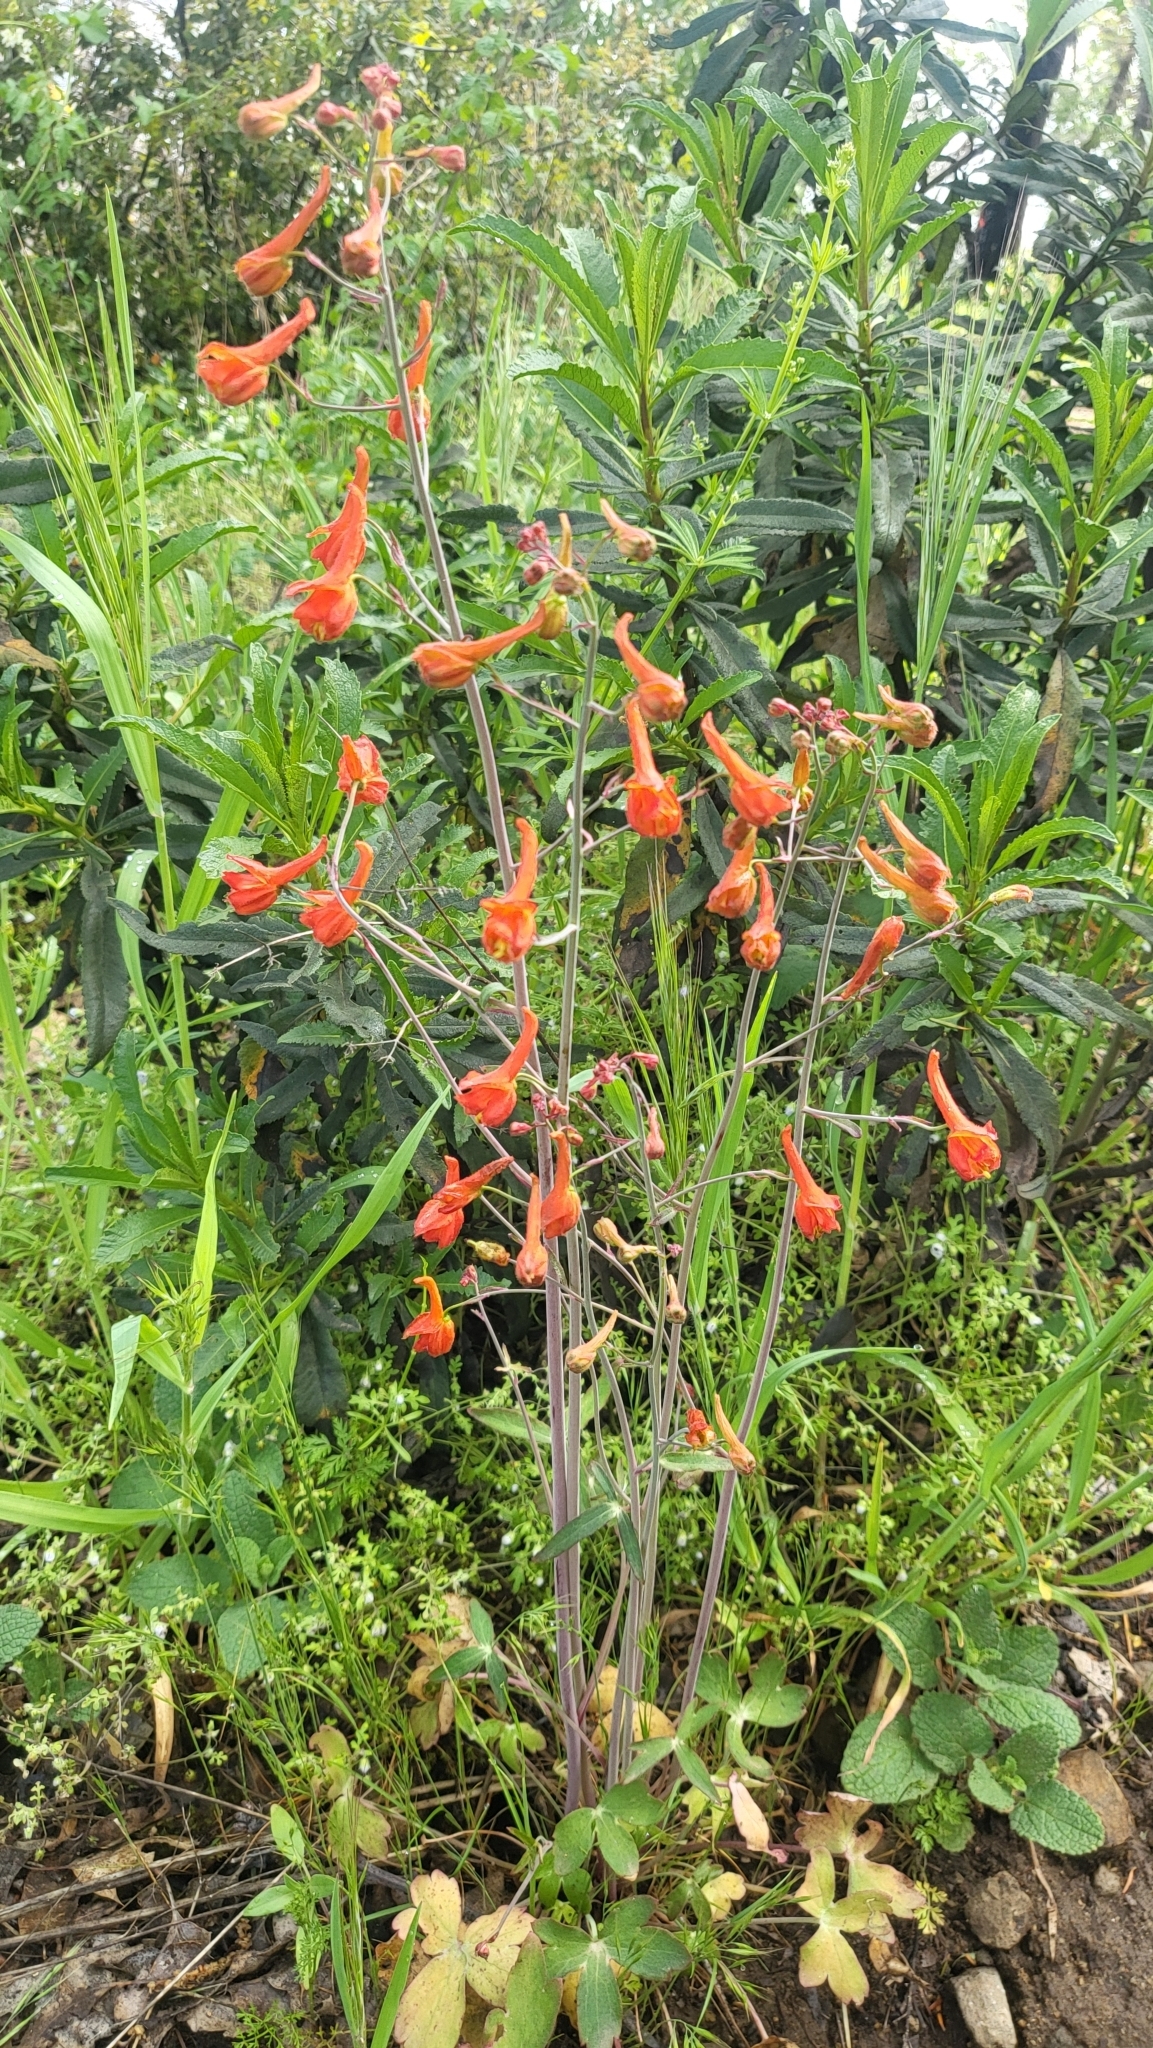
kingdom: Plantae
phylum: Tracheophyta
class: Magnoliopsida
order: Ranunculales
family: Ranunculaceae
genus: Delphinium
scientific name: Delphinium nudicaule
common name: Red larkspur
